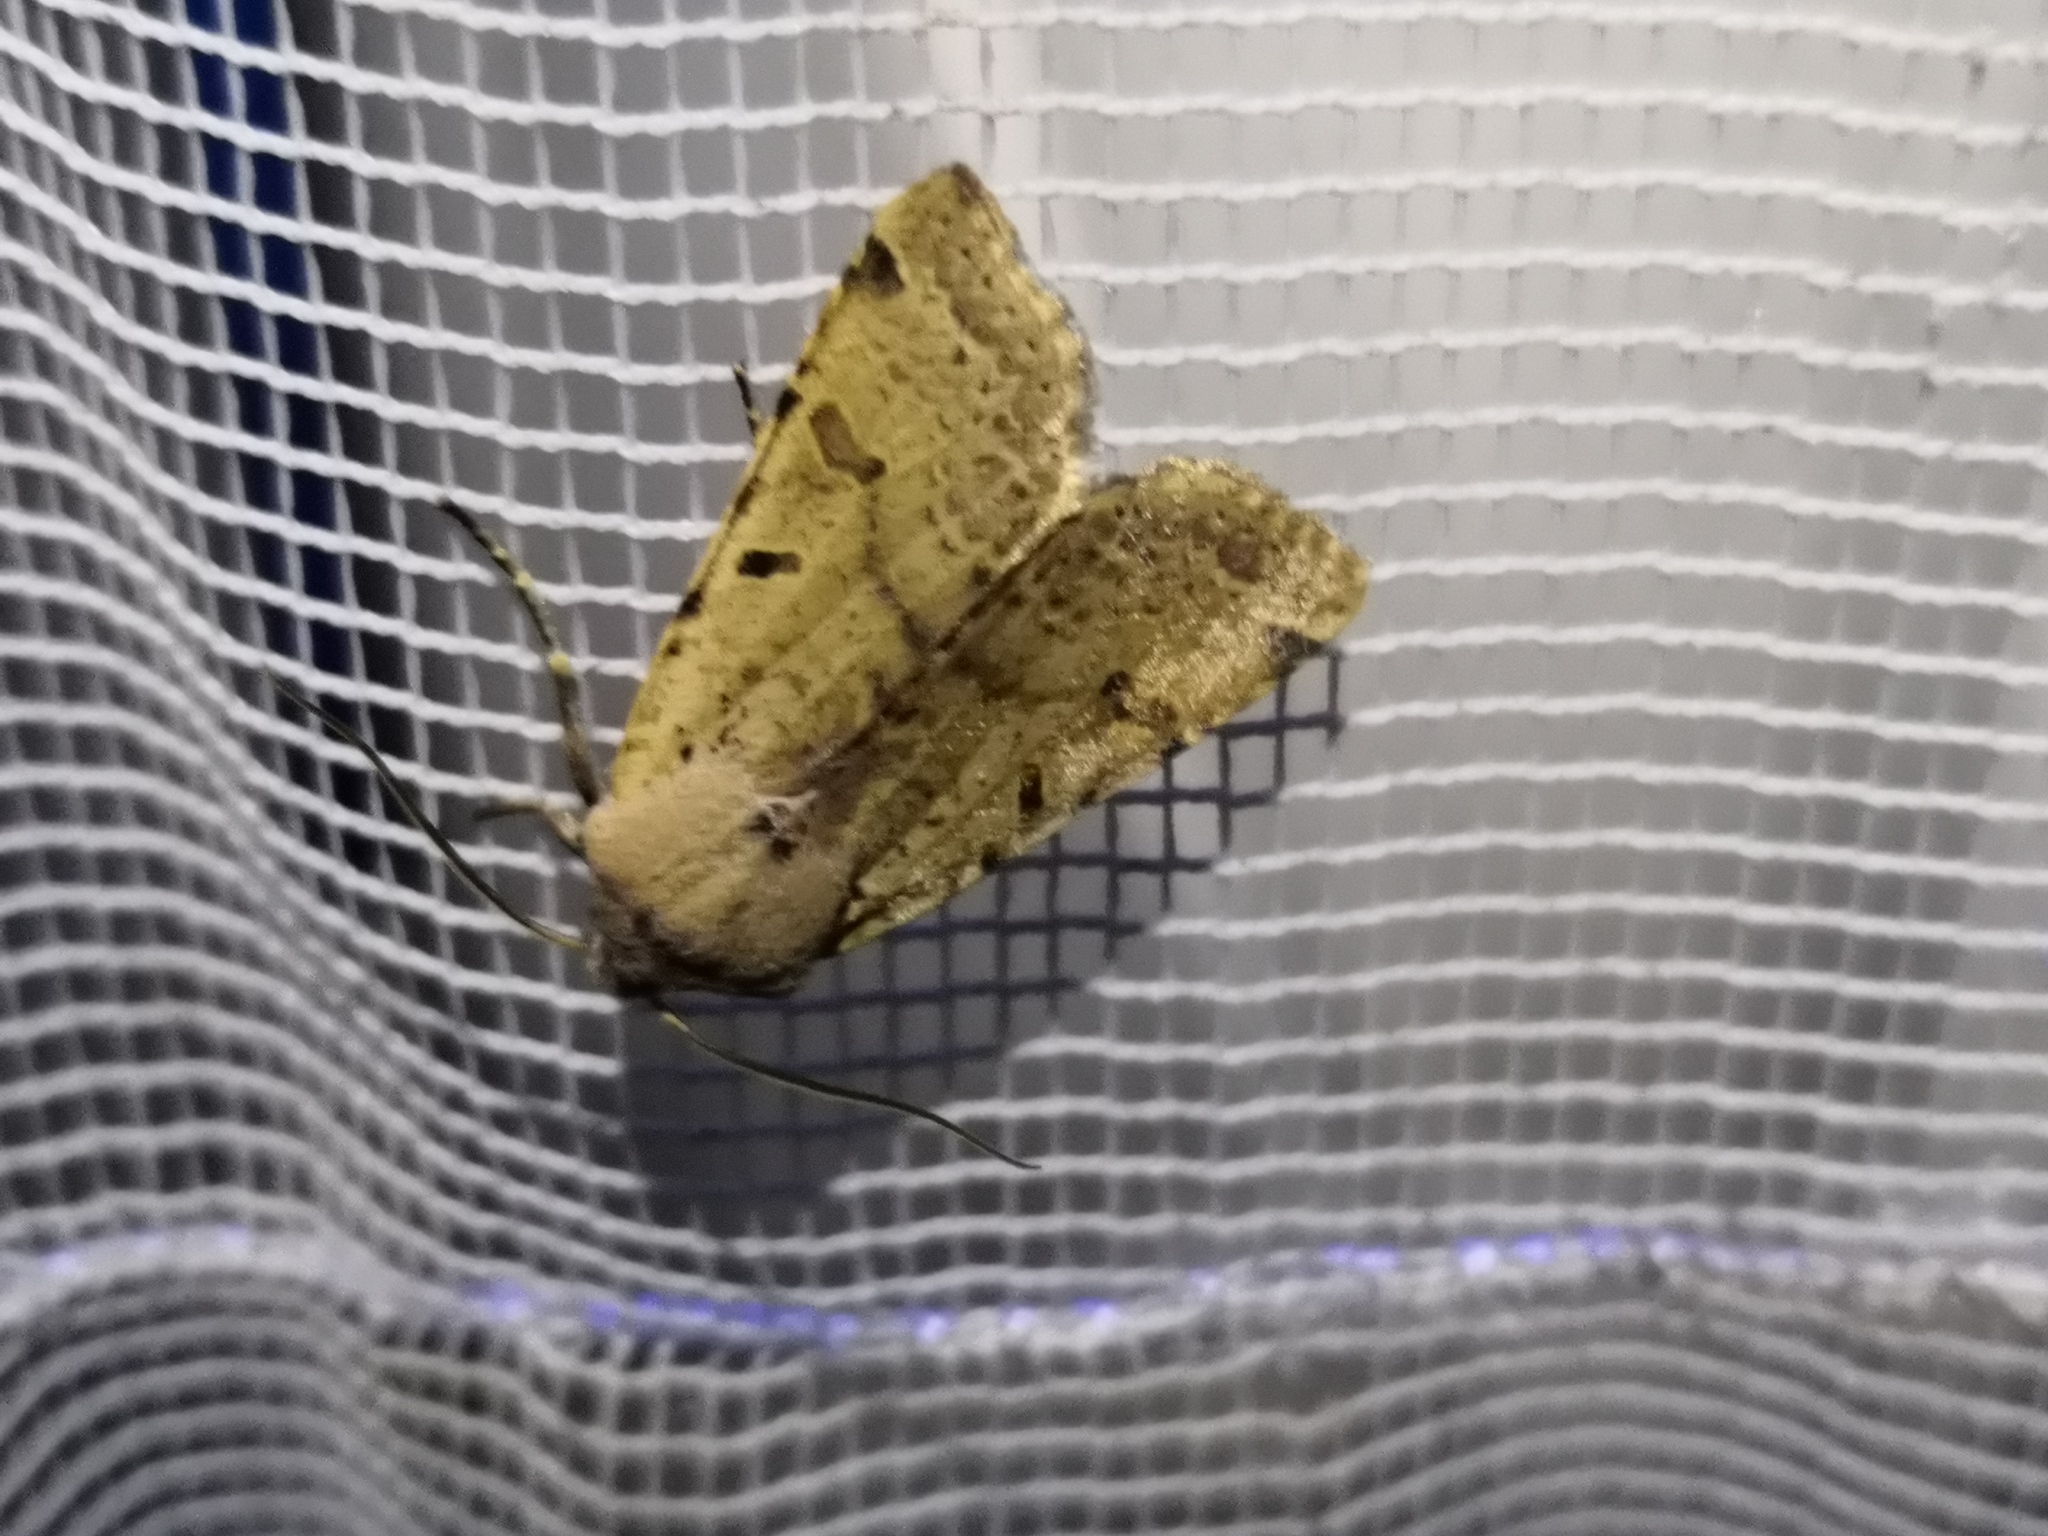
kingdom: Animalia
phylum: Arthropoda
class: Insecta
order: Lepidoptera
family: Noctuidae
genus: Agrochola
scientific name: Agrochola lychnidis
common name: Beaded chestnut
